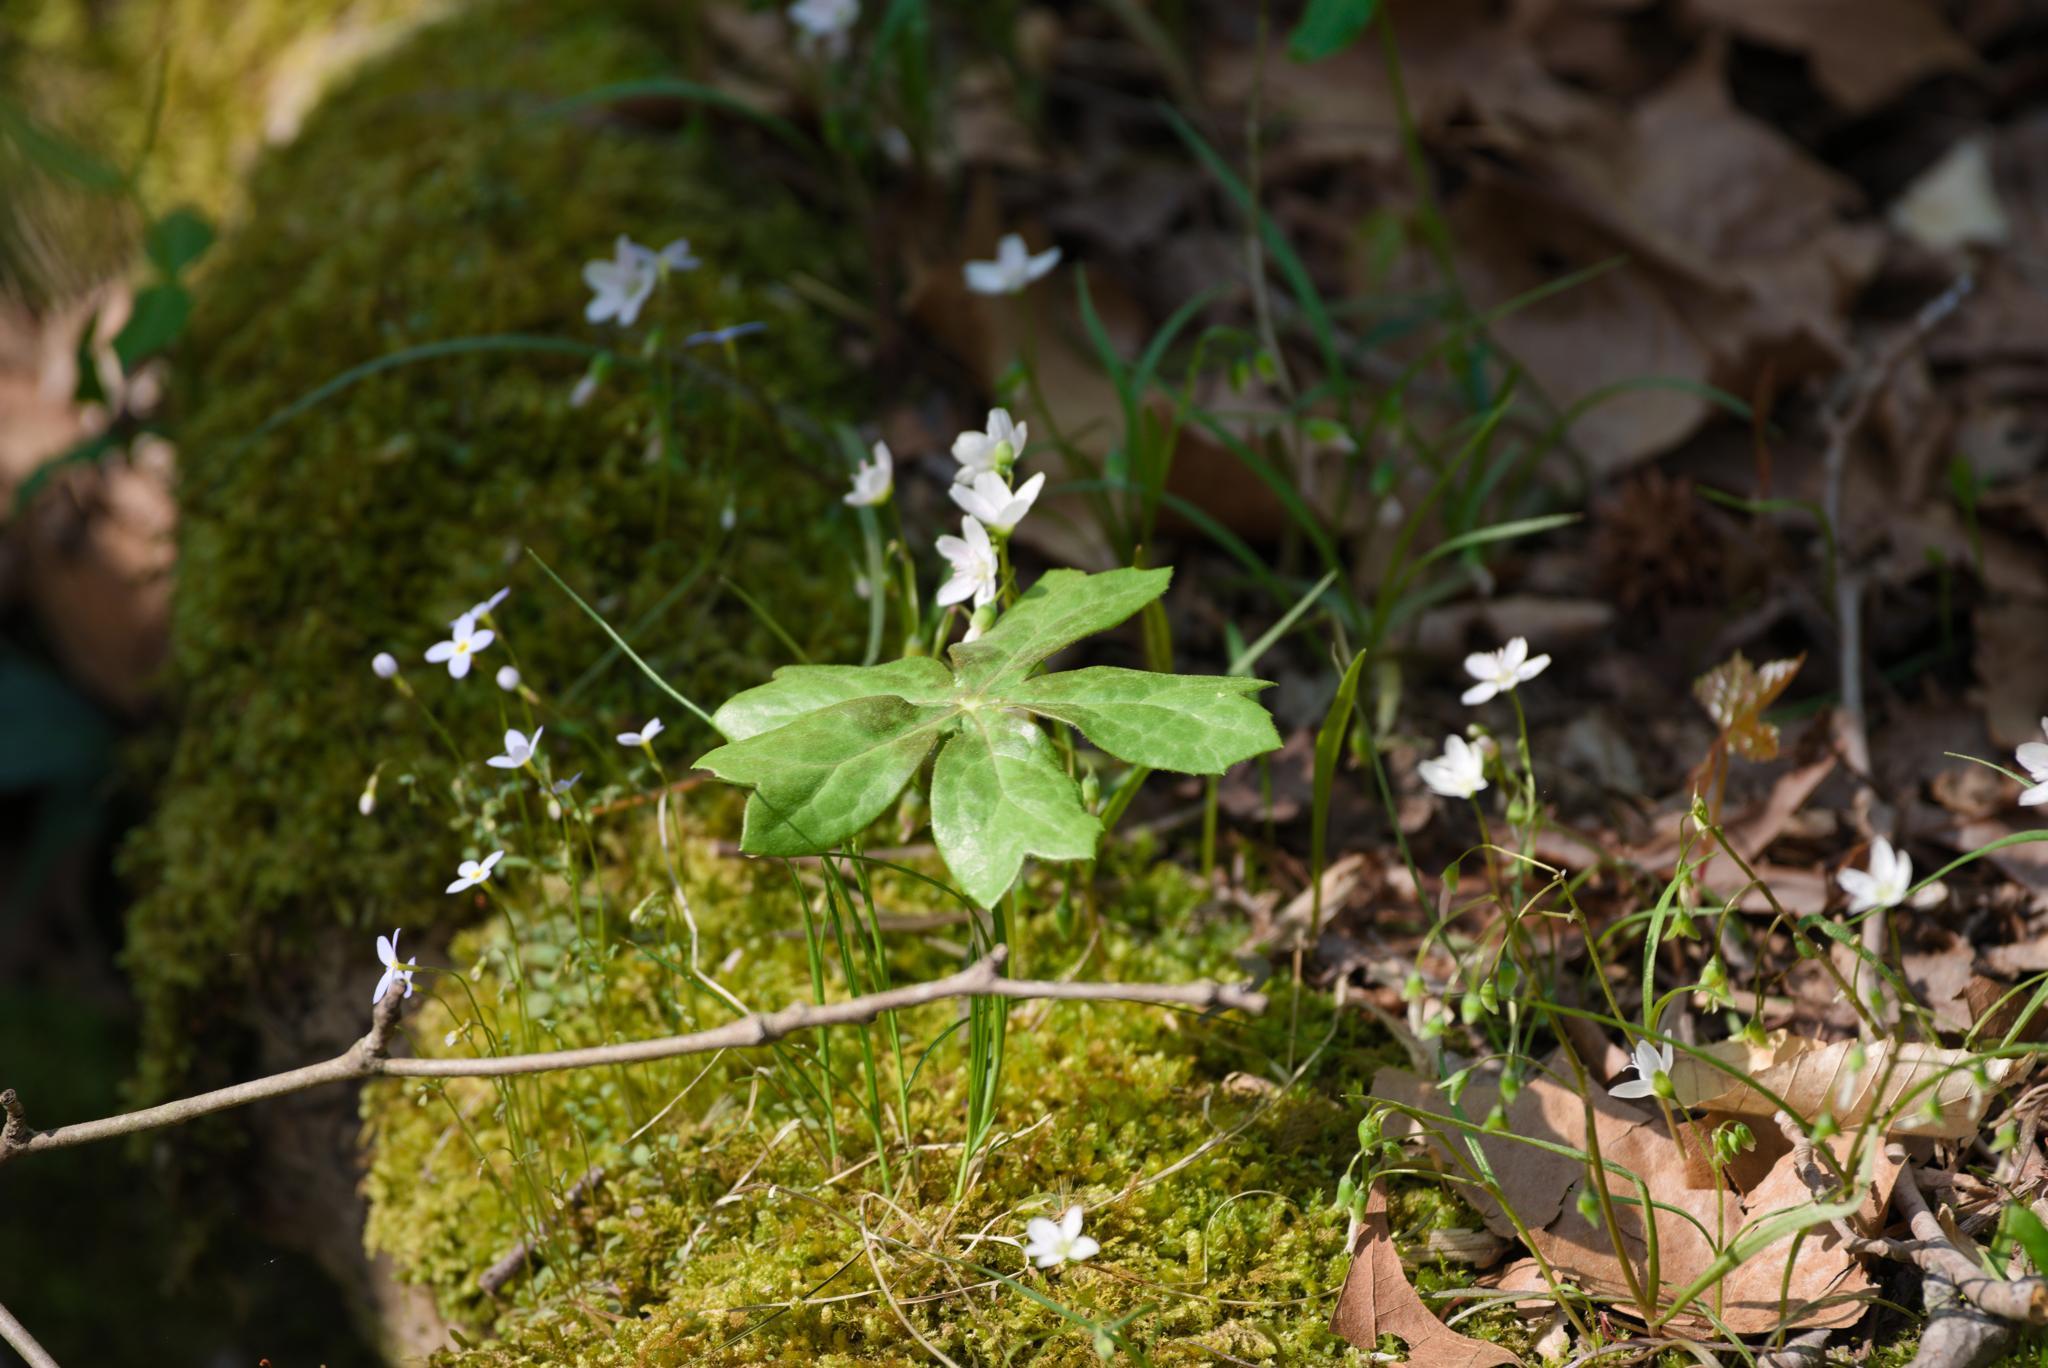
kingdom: Plantae
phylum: Tracheophyta
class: Magnoliopsida
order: Ranunculales
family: Berberidaceae
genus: Podophyllum
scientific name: Podophyllum peltatum
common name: Wild mandrake
